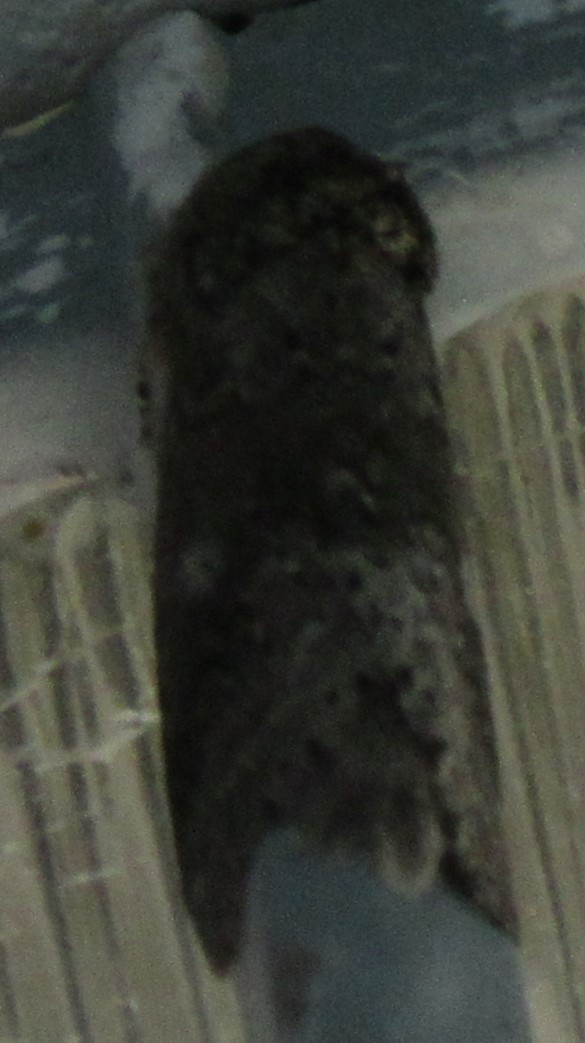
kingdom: Animalia
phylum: Arthropoda
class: Insecta
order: Lepidoptera
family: Notodontidae
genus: Lochmaeus
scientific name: Lochmaeus manteo
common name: Variable oakleaf caterpillar moth
